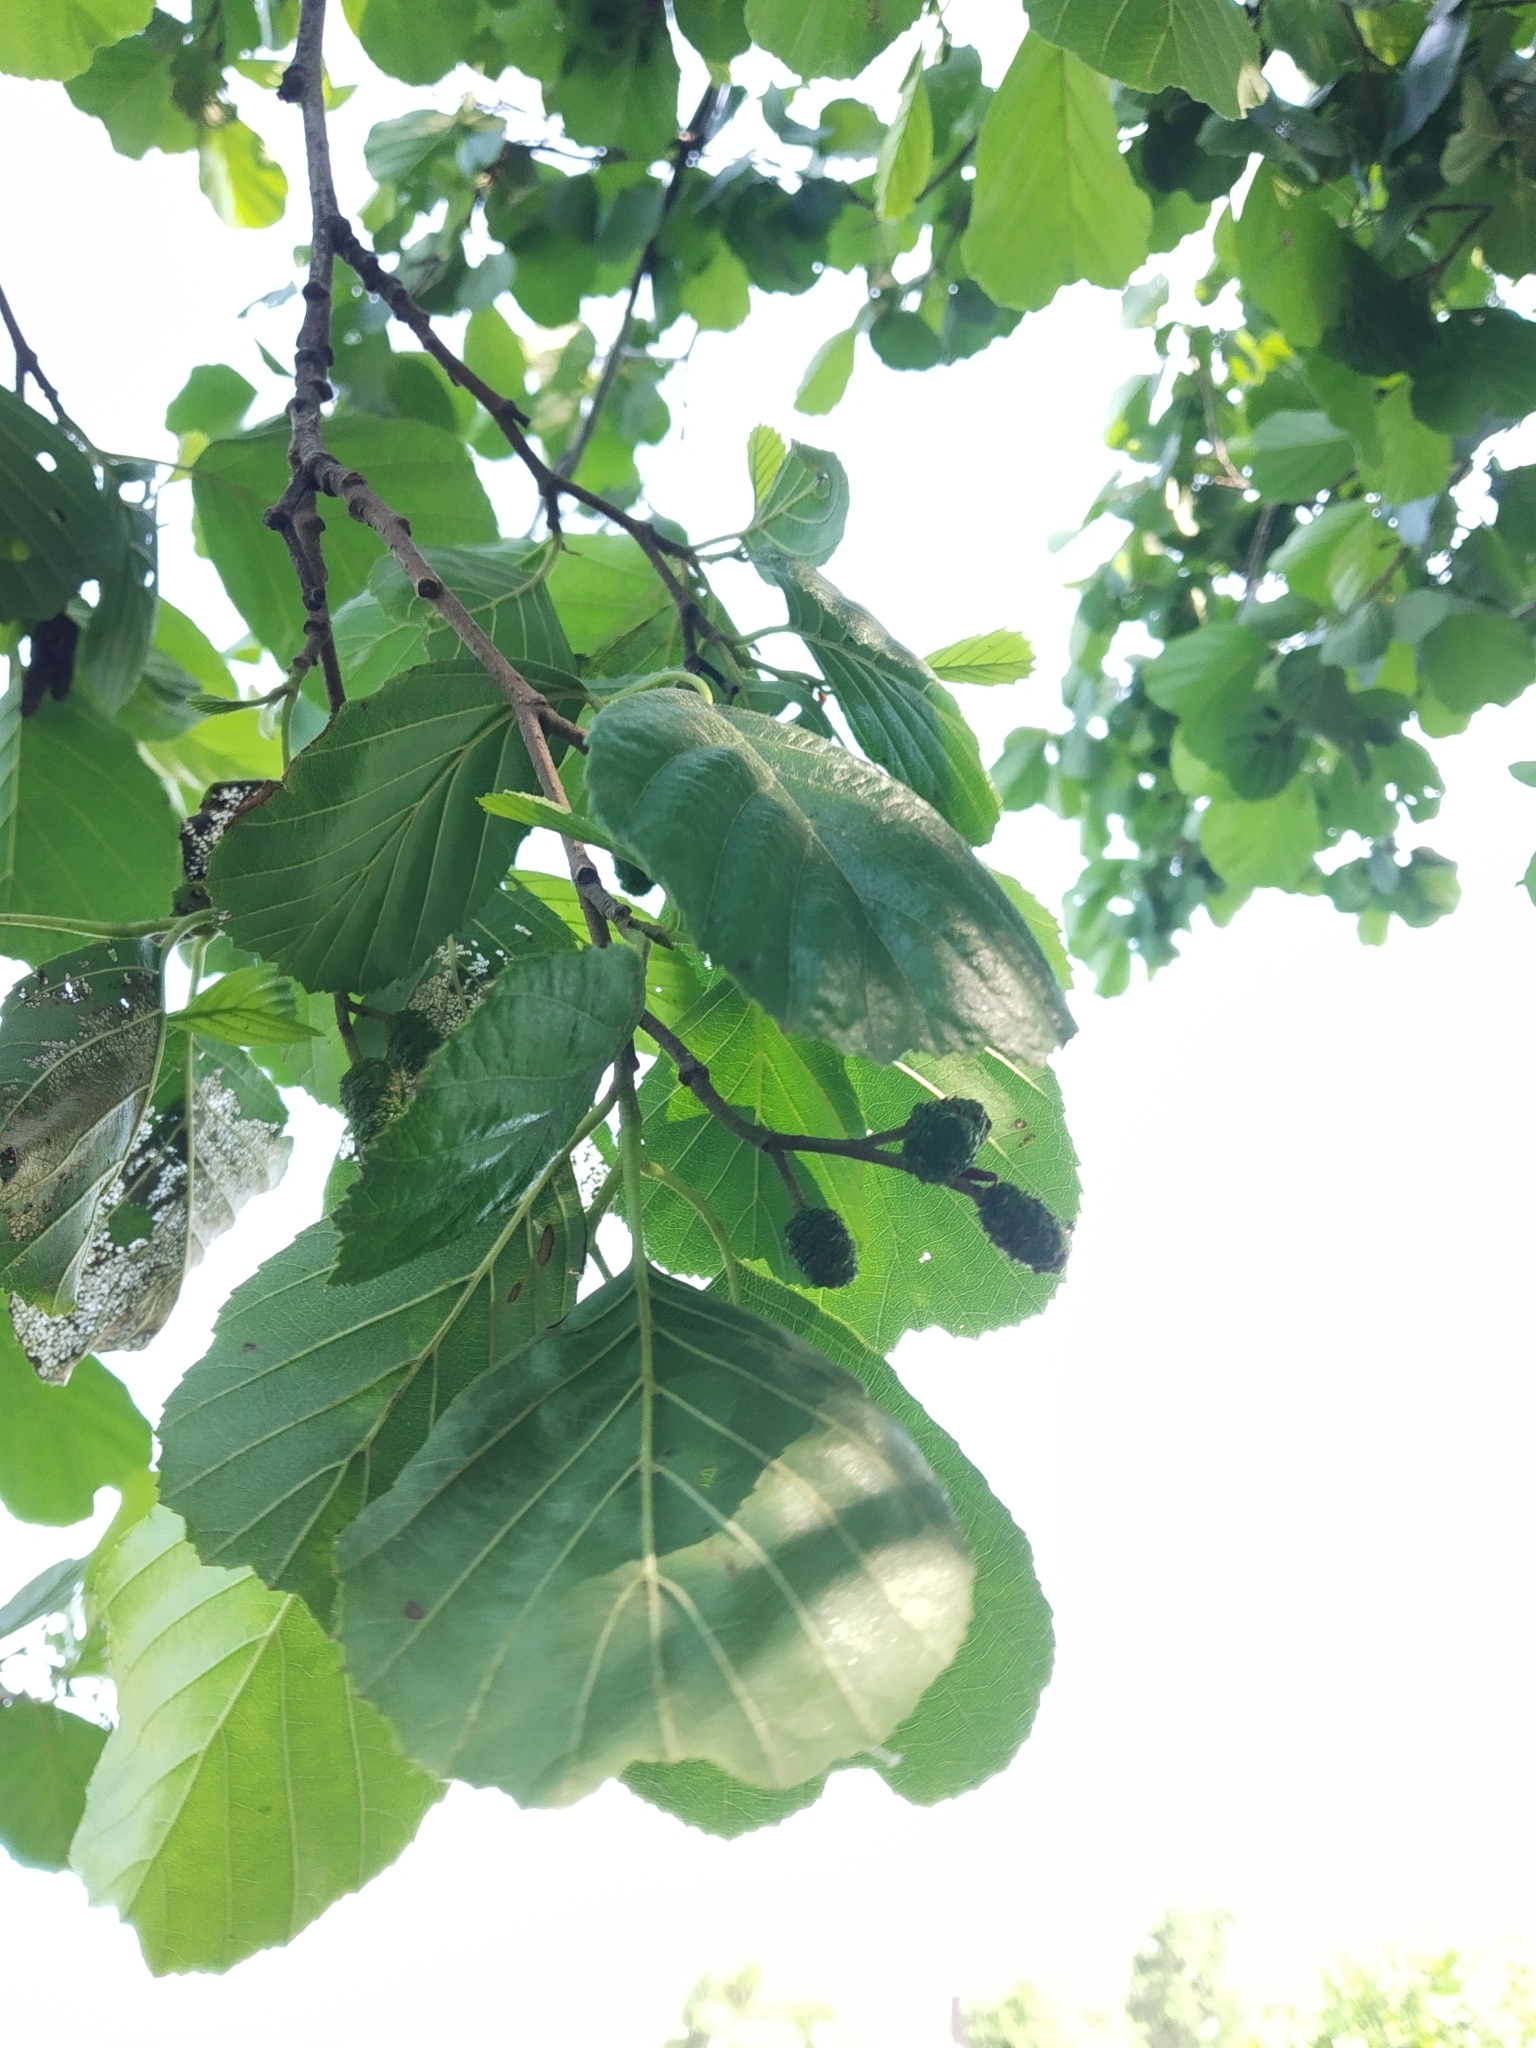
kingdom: Plantae
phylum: Tracheophyta
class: Magnoliopsida
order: Fagales
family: Betulaceae
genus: Alnus
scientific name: Alnus glutinosa
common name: Black alder
